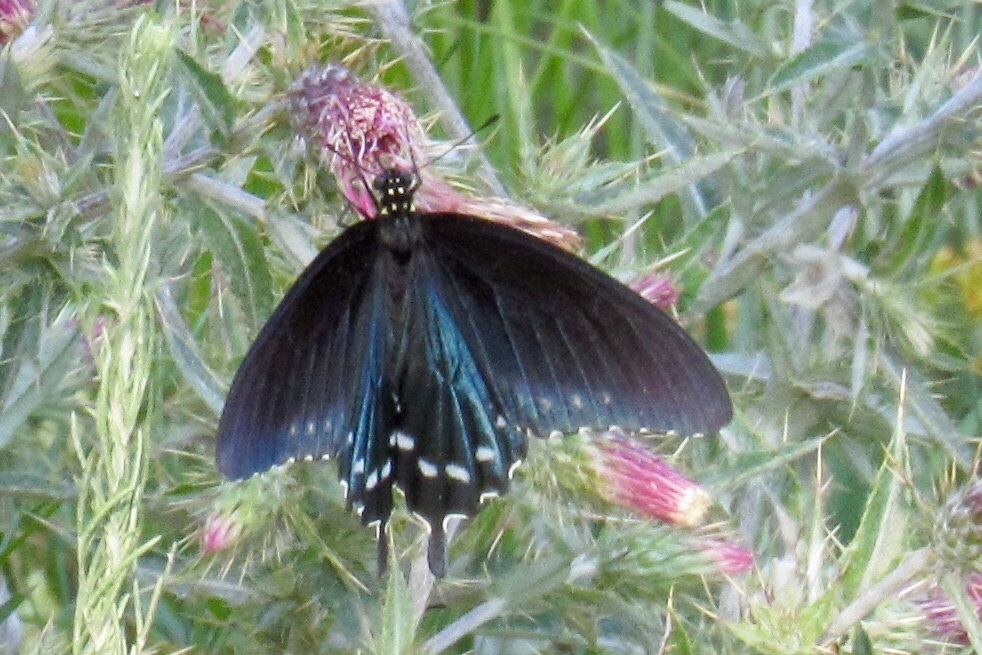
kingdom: Animalia
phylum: Arthropoda
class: Insecta
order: Lepidoptera
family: Papilionidae
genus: Battus
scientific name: Battus philenor
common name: Pipevine swallowtail
